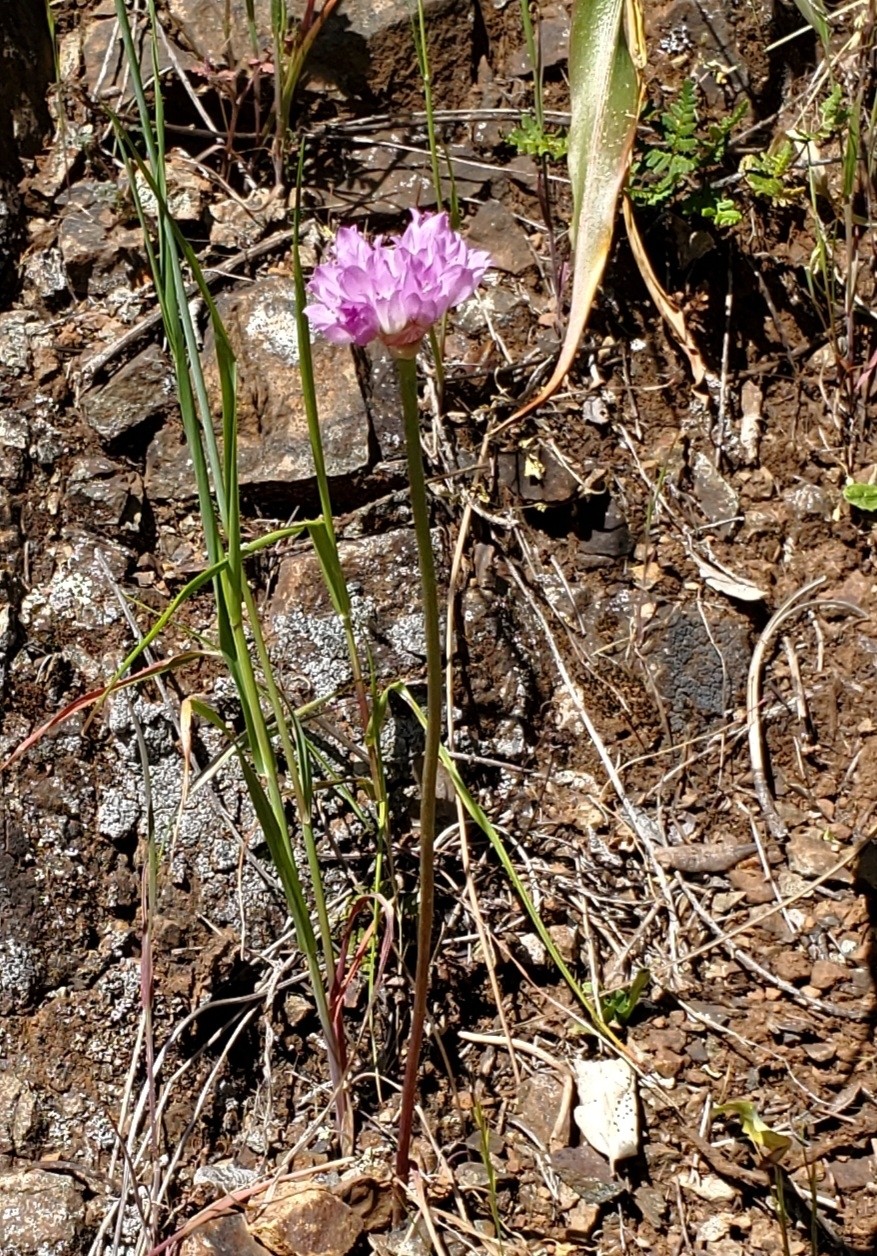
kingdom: Plantae
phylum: Tracheophyta
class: Liliopsida
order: Asparagales
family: Amaryllidaceae
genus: Allium
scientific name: Allium serra
